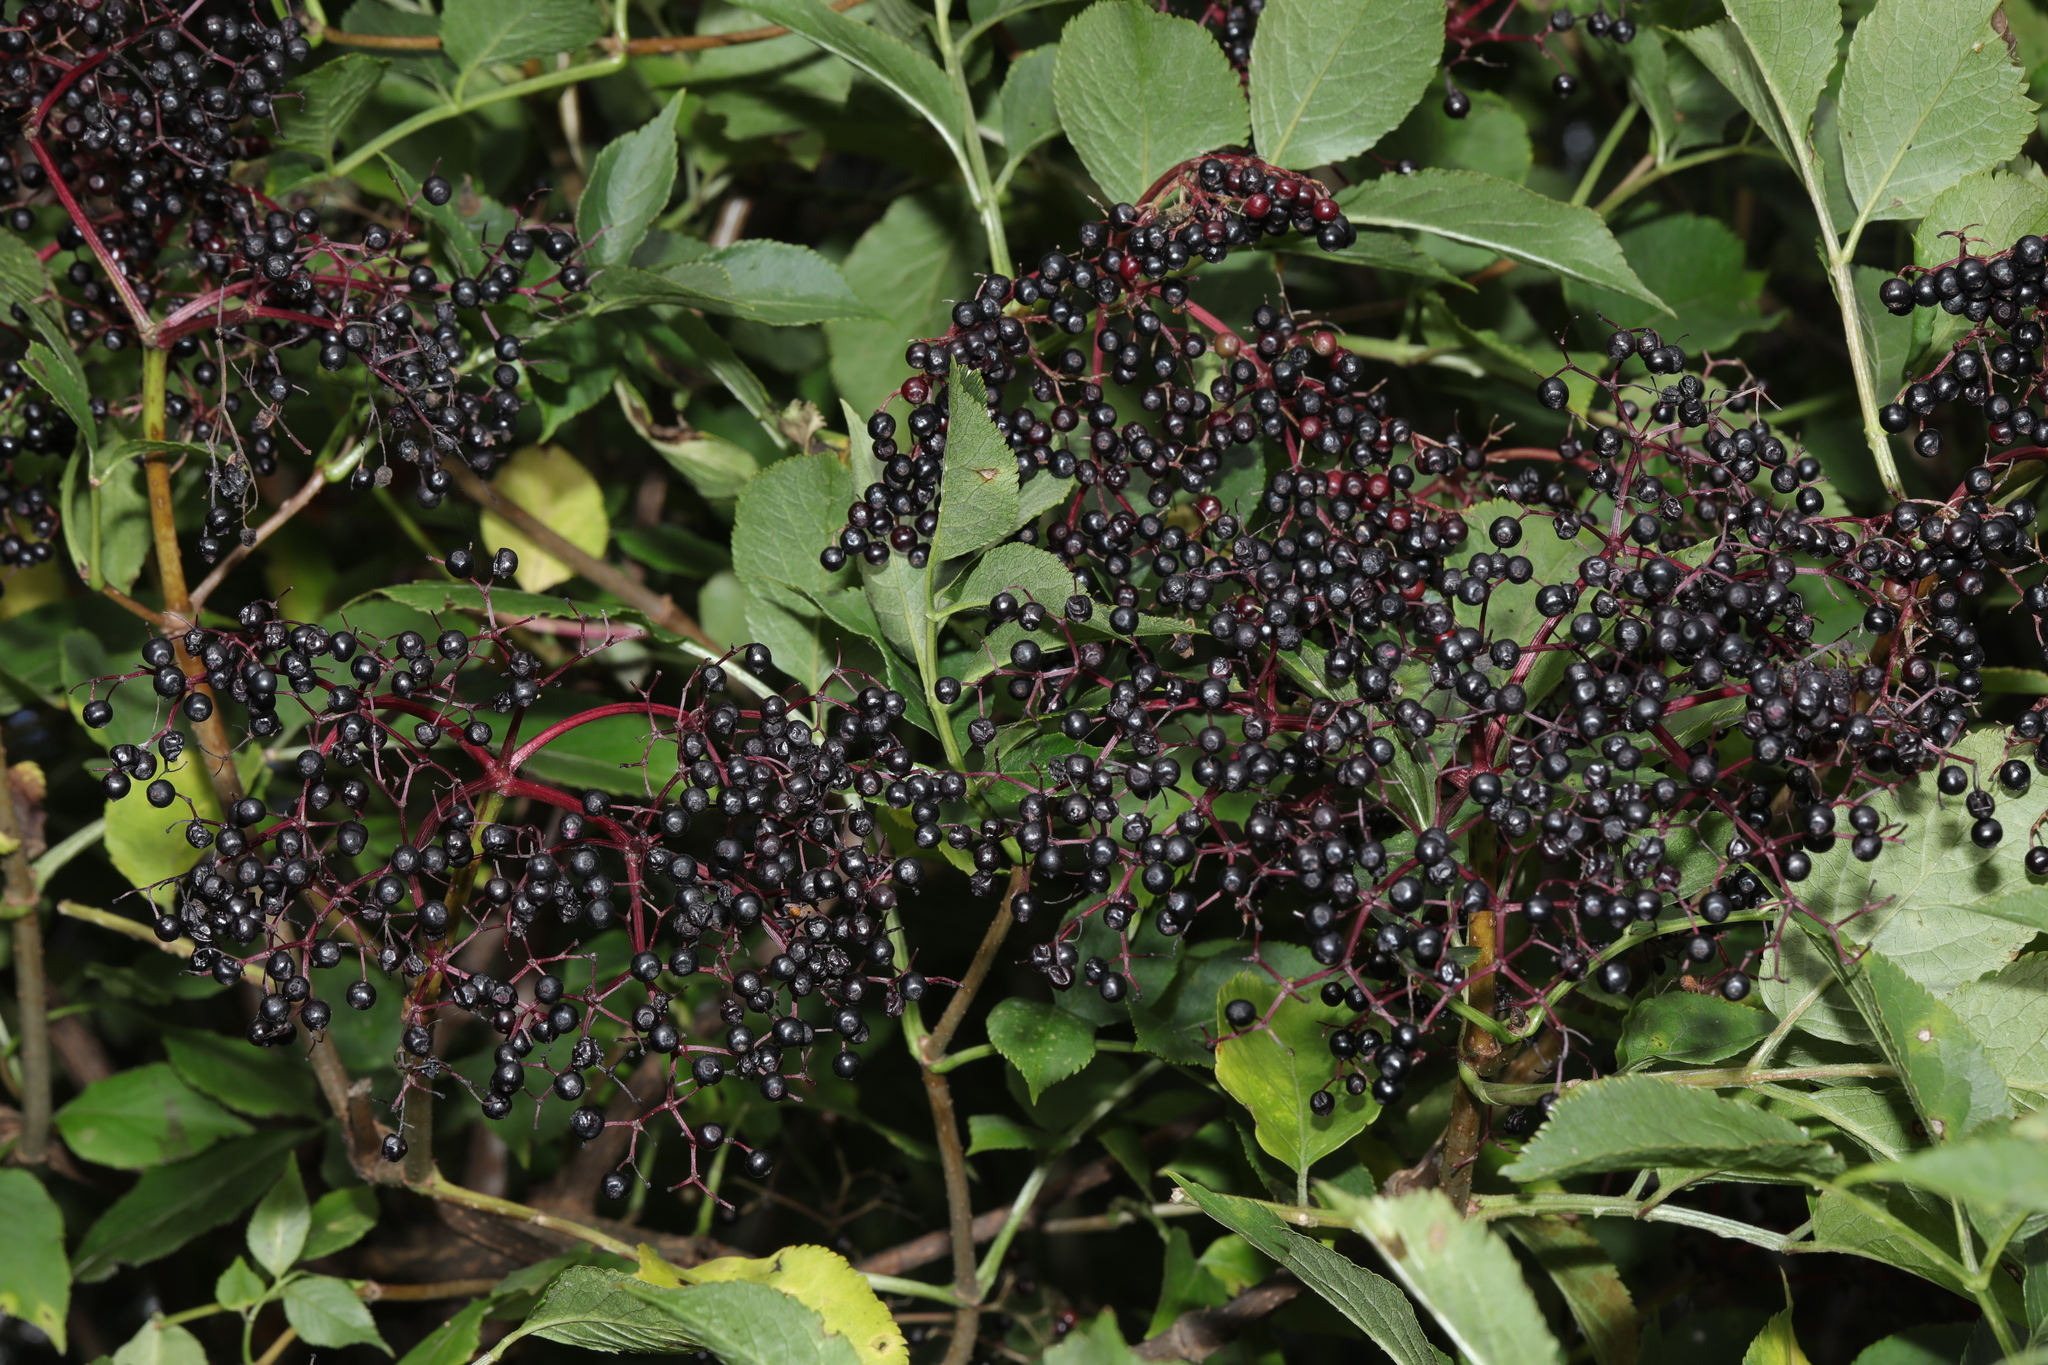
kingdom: Plantae
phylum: Tracheophyta
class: Magnoliopsida
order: Dipsacales
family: Viburnaceae
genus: Sambucus
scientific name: Sambucus nigra
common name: Elder
